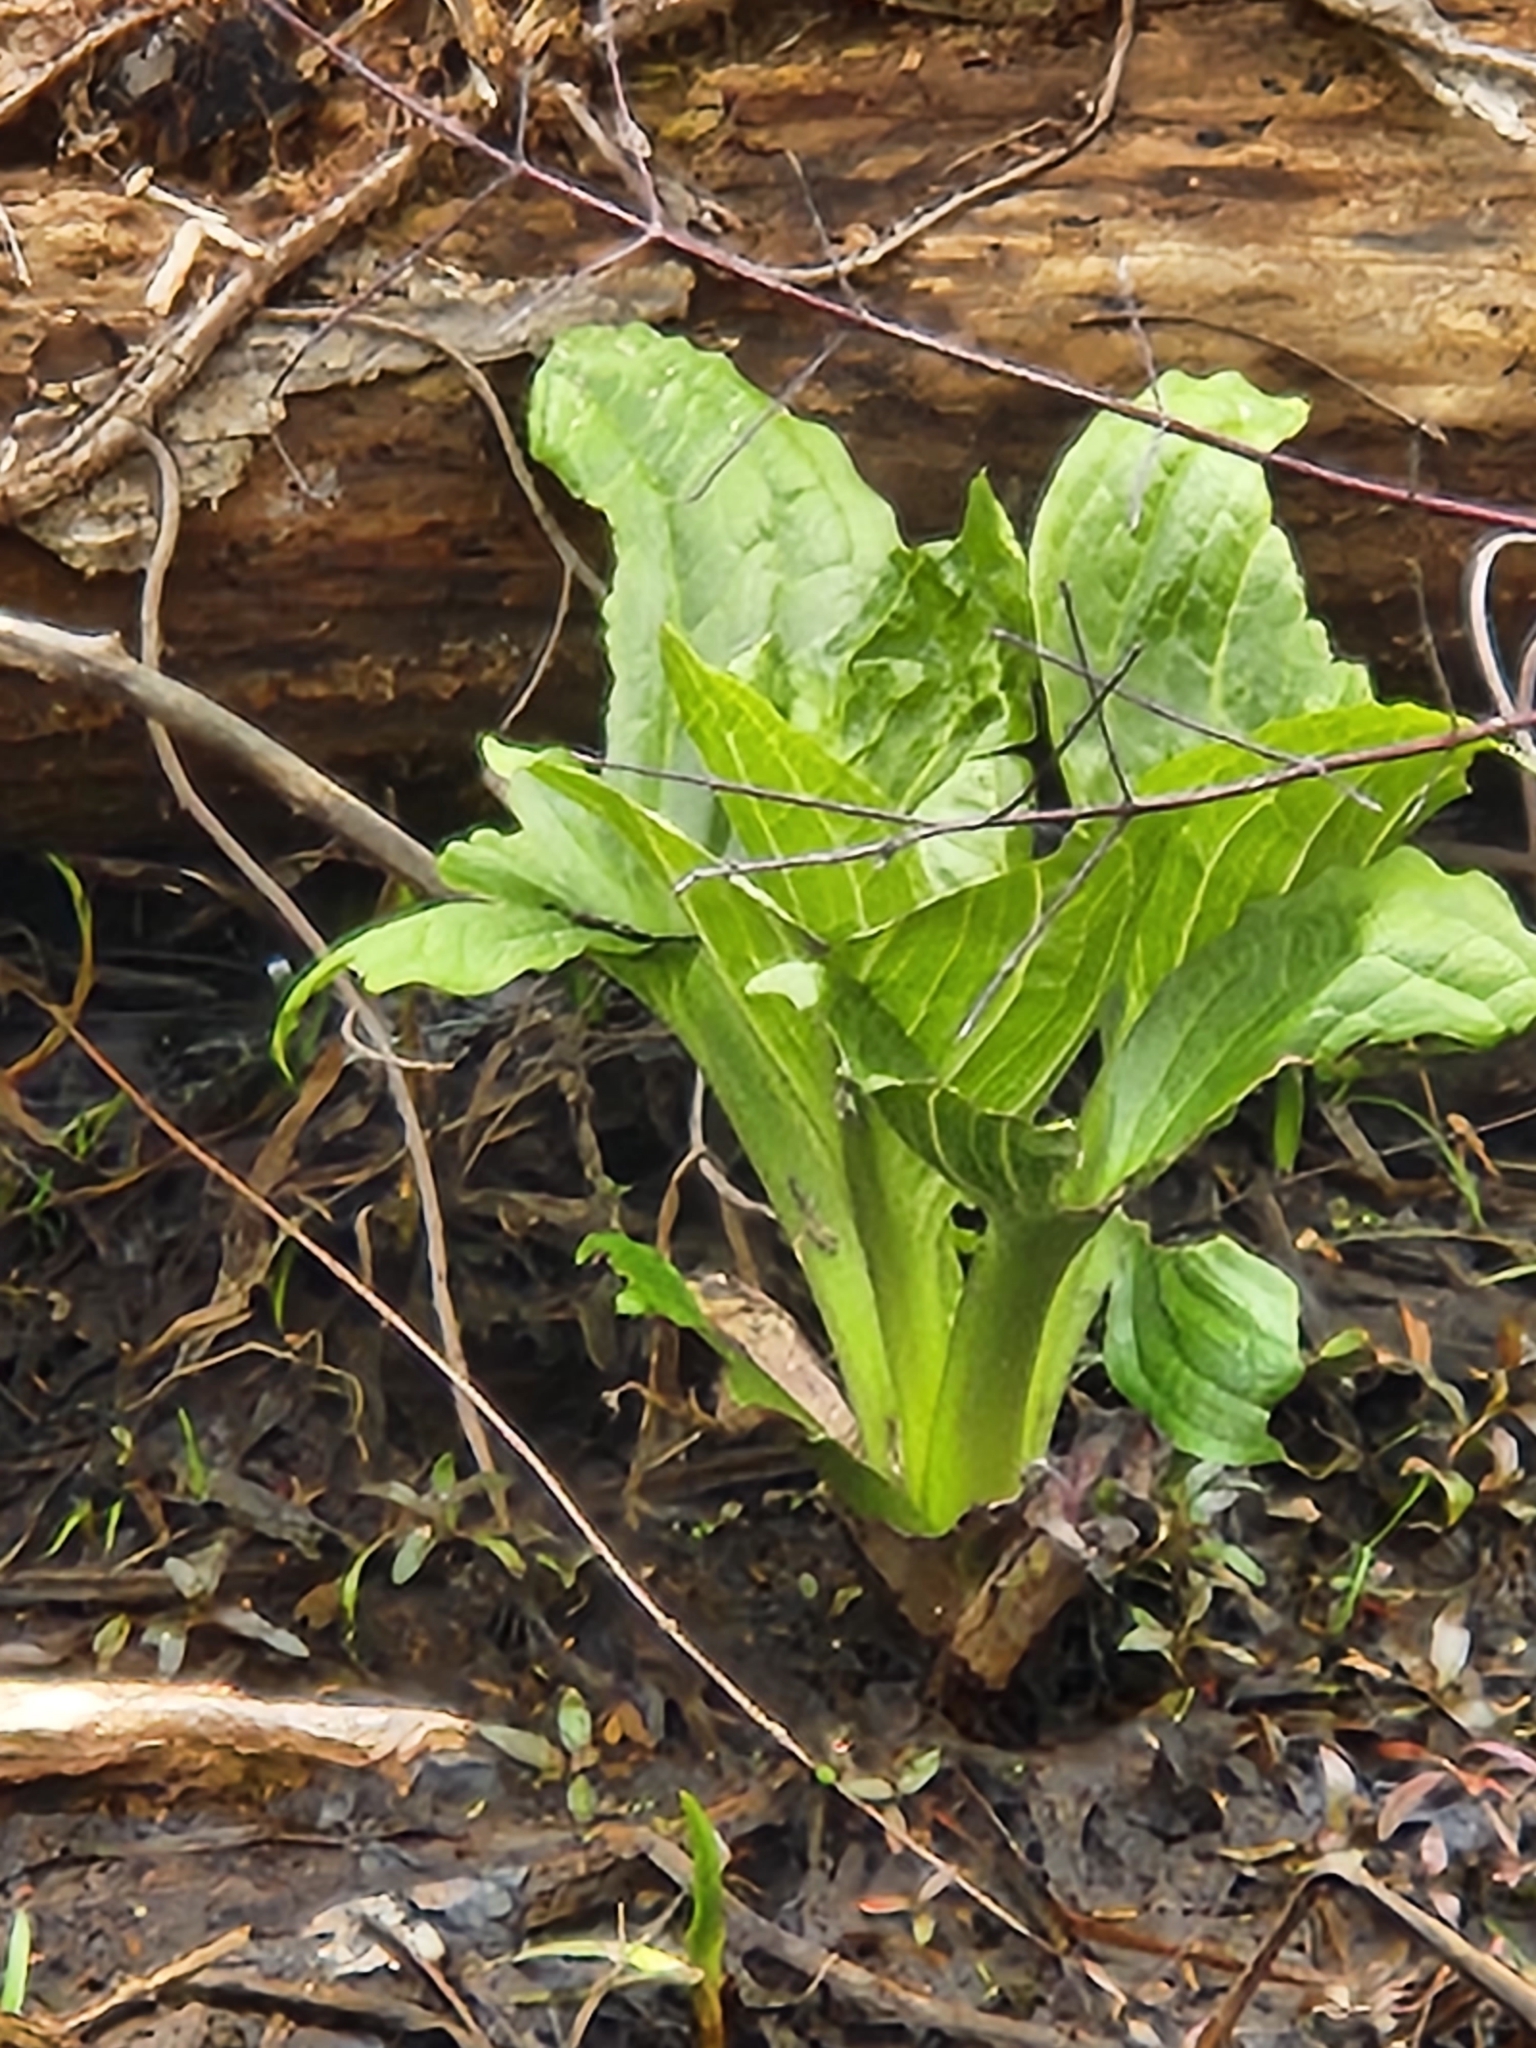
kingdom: Plantae
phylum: Tracheophyta
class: Liliopsida
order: Alismatales
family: Araceae
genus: Symplocarpus
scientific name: Symplocarpus foetidus
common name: Eastern skunk cabbage
